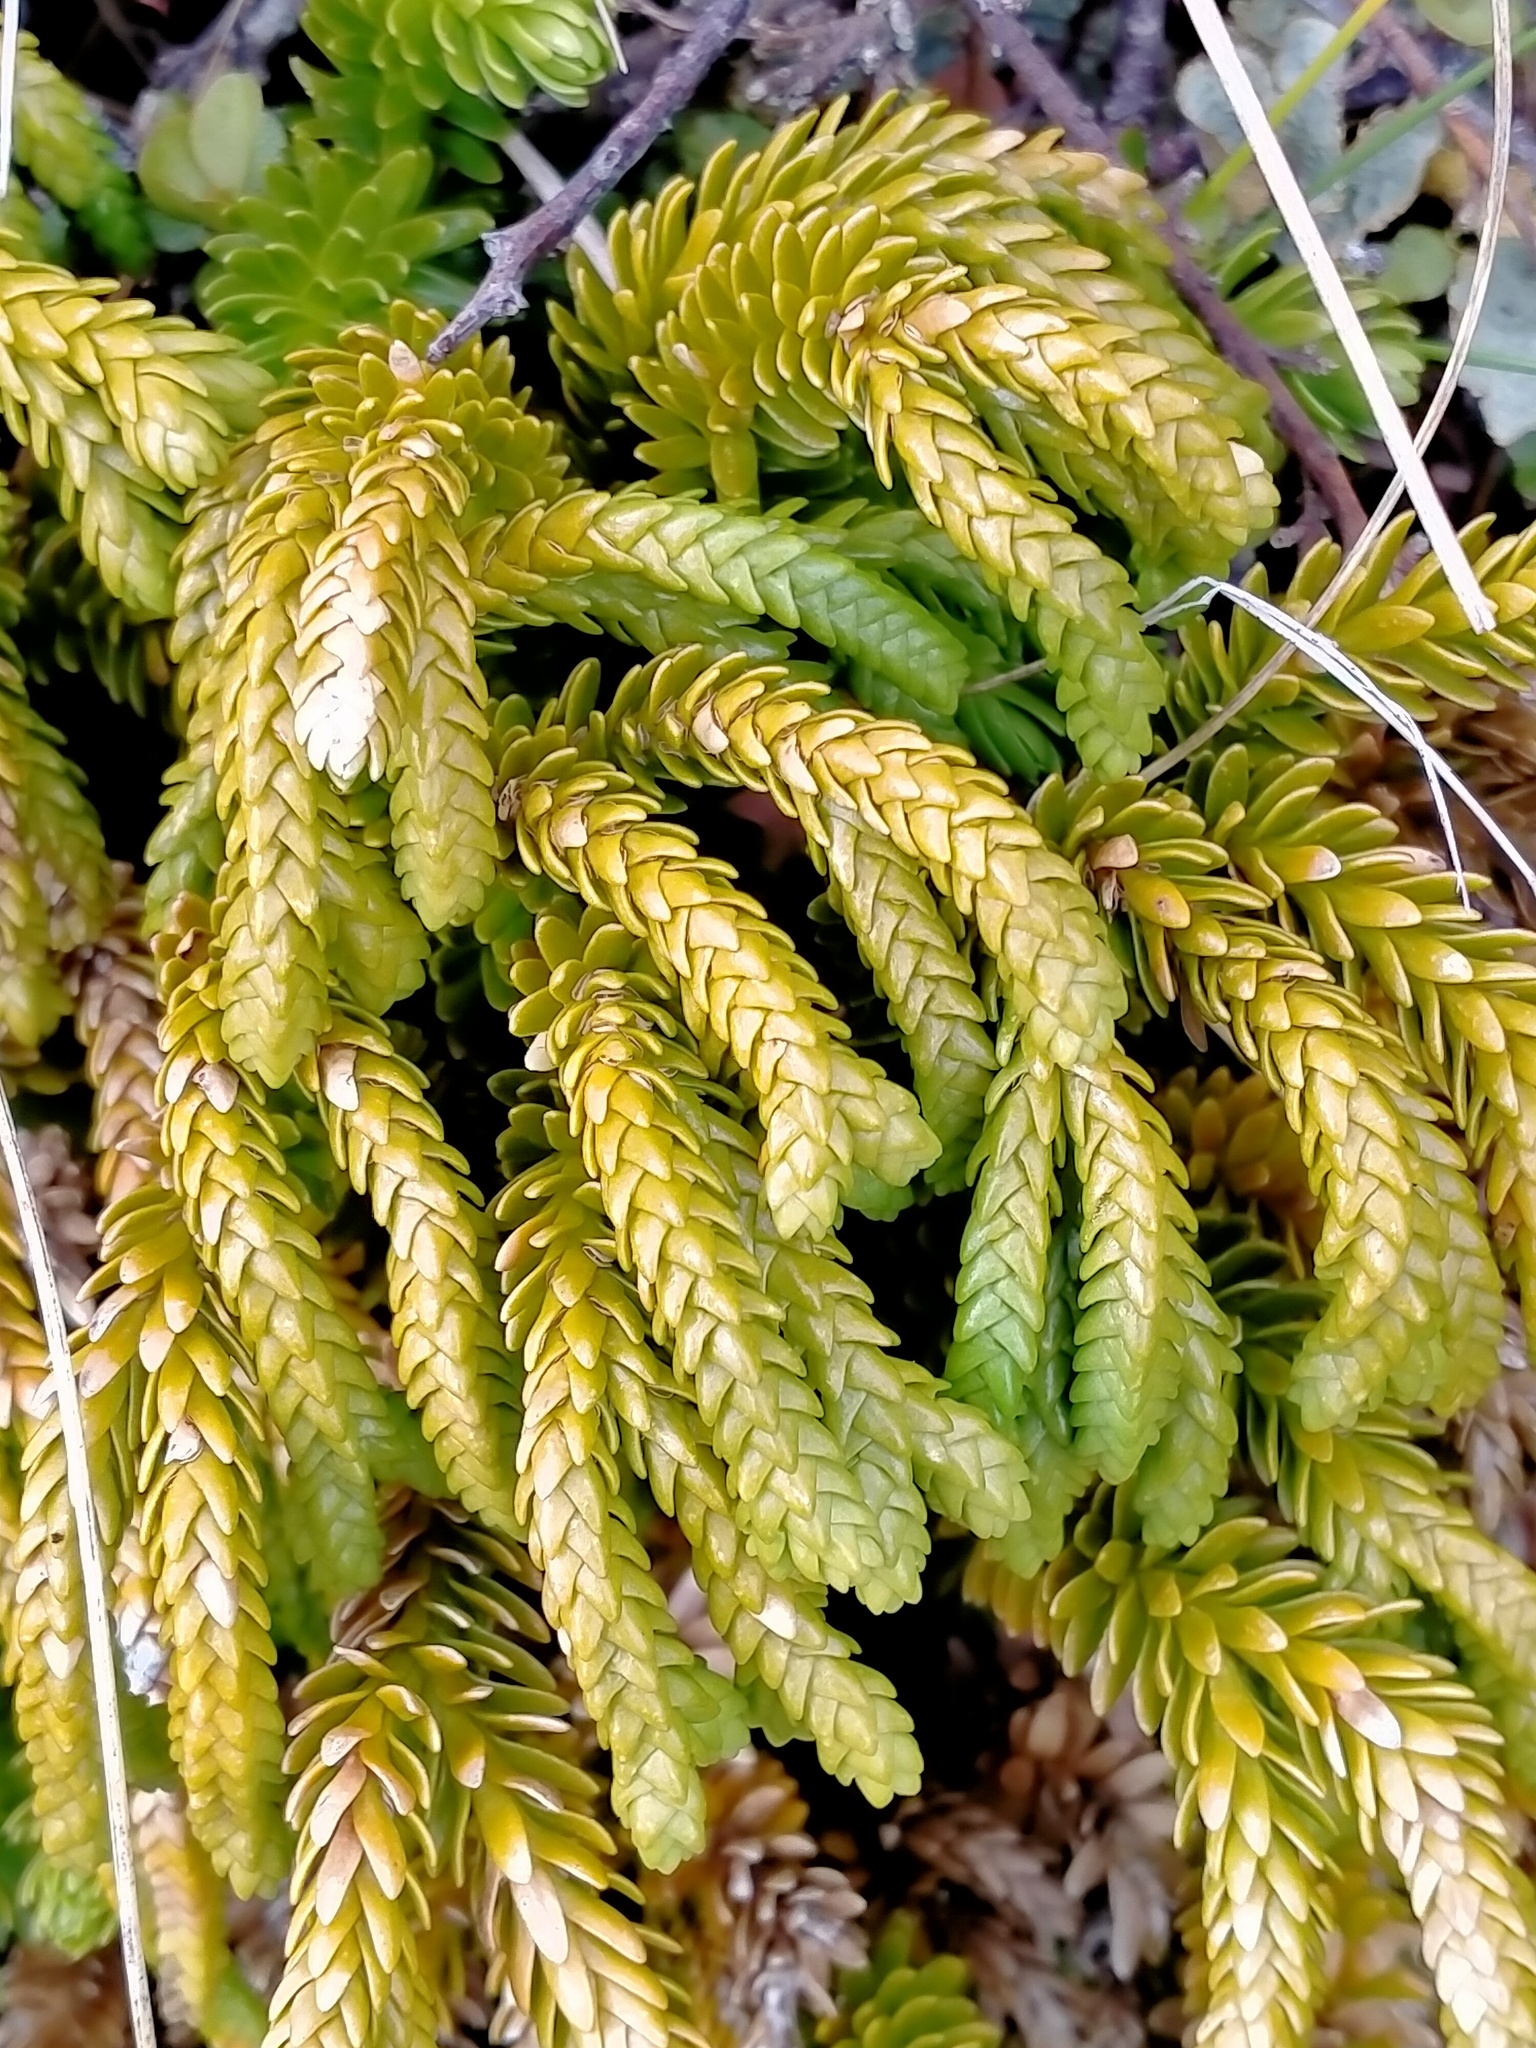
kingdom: Plantae
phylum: Tracheophyta
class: Lycopodiopsida
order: Lycopodiales
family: Lycopodiaceae
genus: Phlegmariurus
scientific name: Phlegmariurus varius
